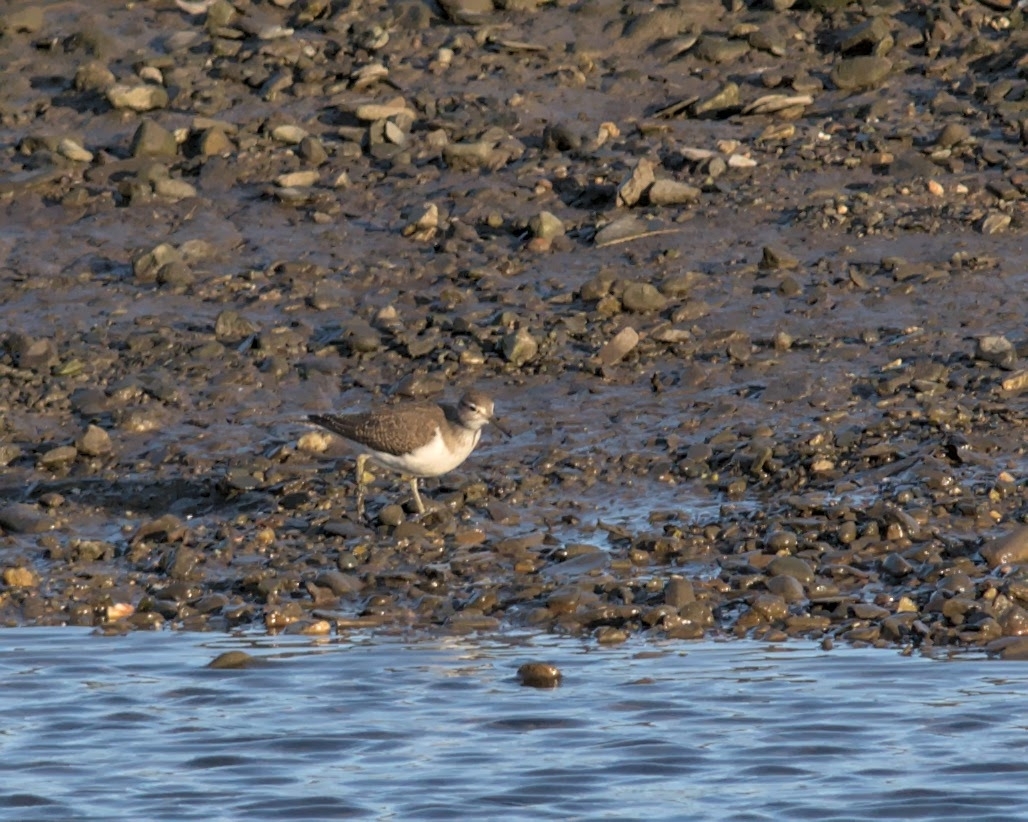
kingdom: Animalia
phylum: Chordata
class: Aves
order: Charadriiformes
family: Scolopacidae
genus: Actitis
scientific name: Actitis hypoleucos
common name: Common sandpiper
